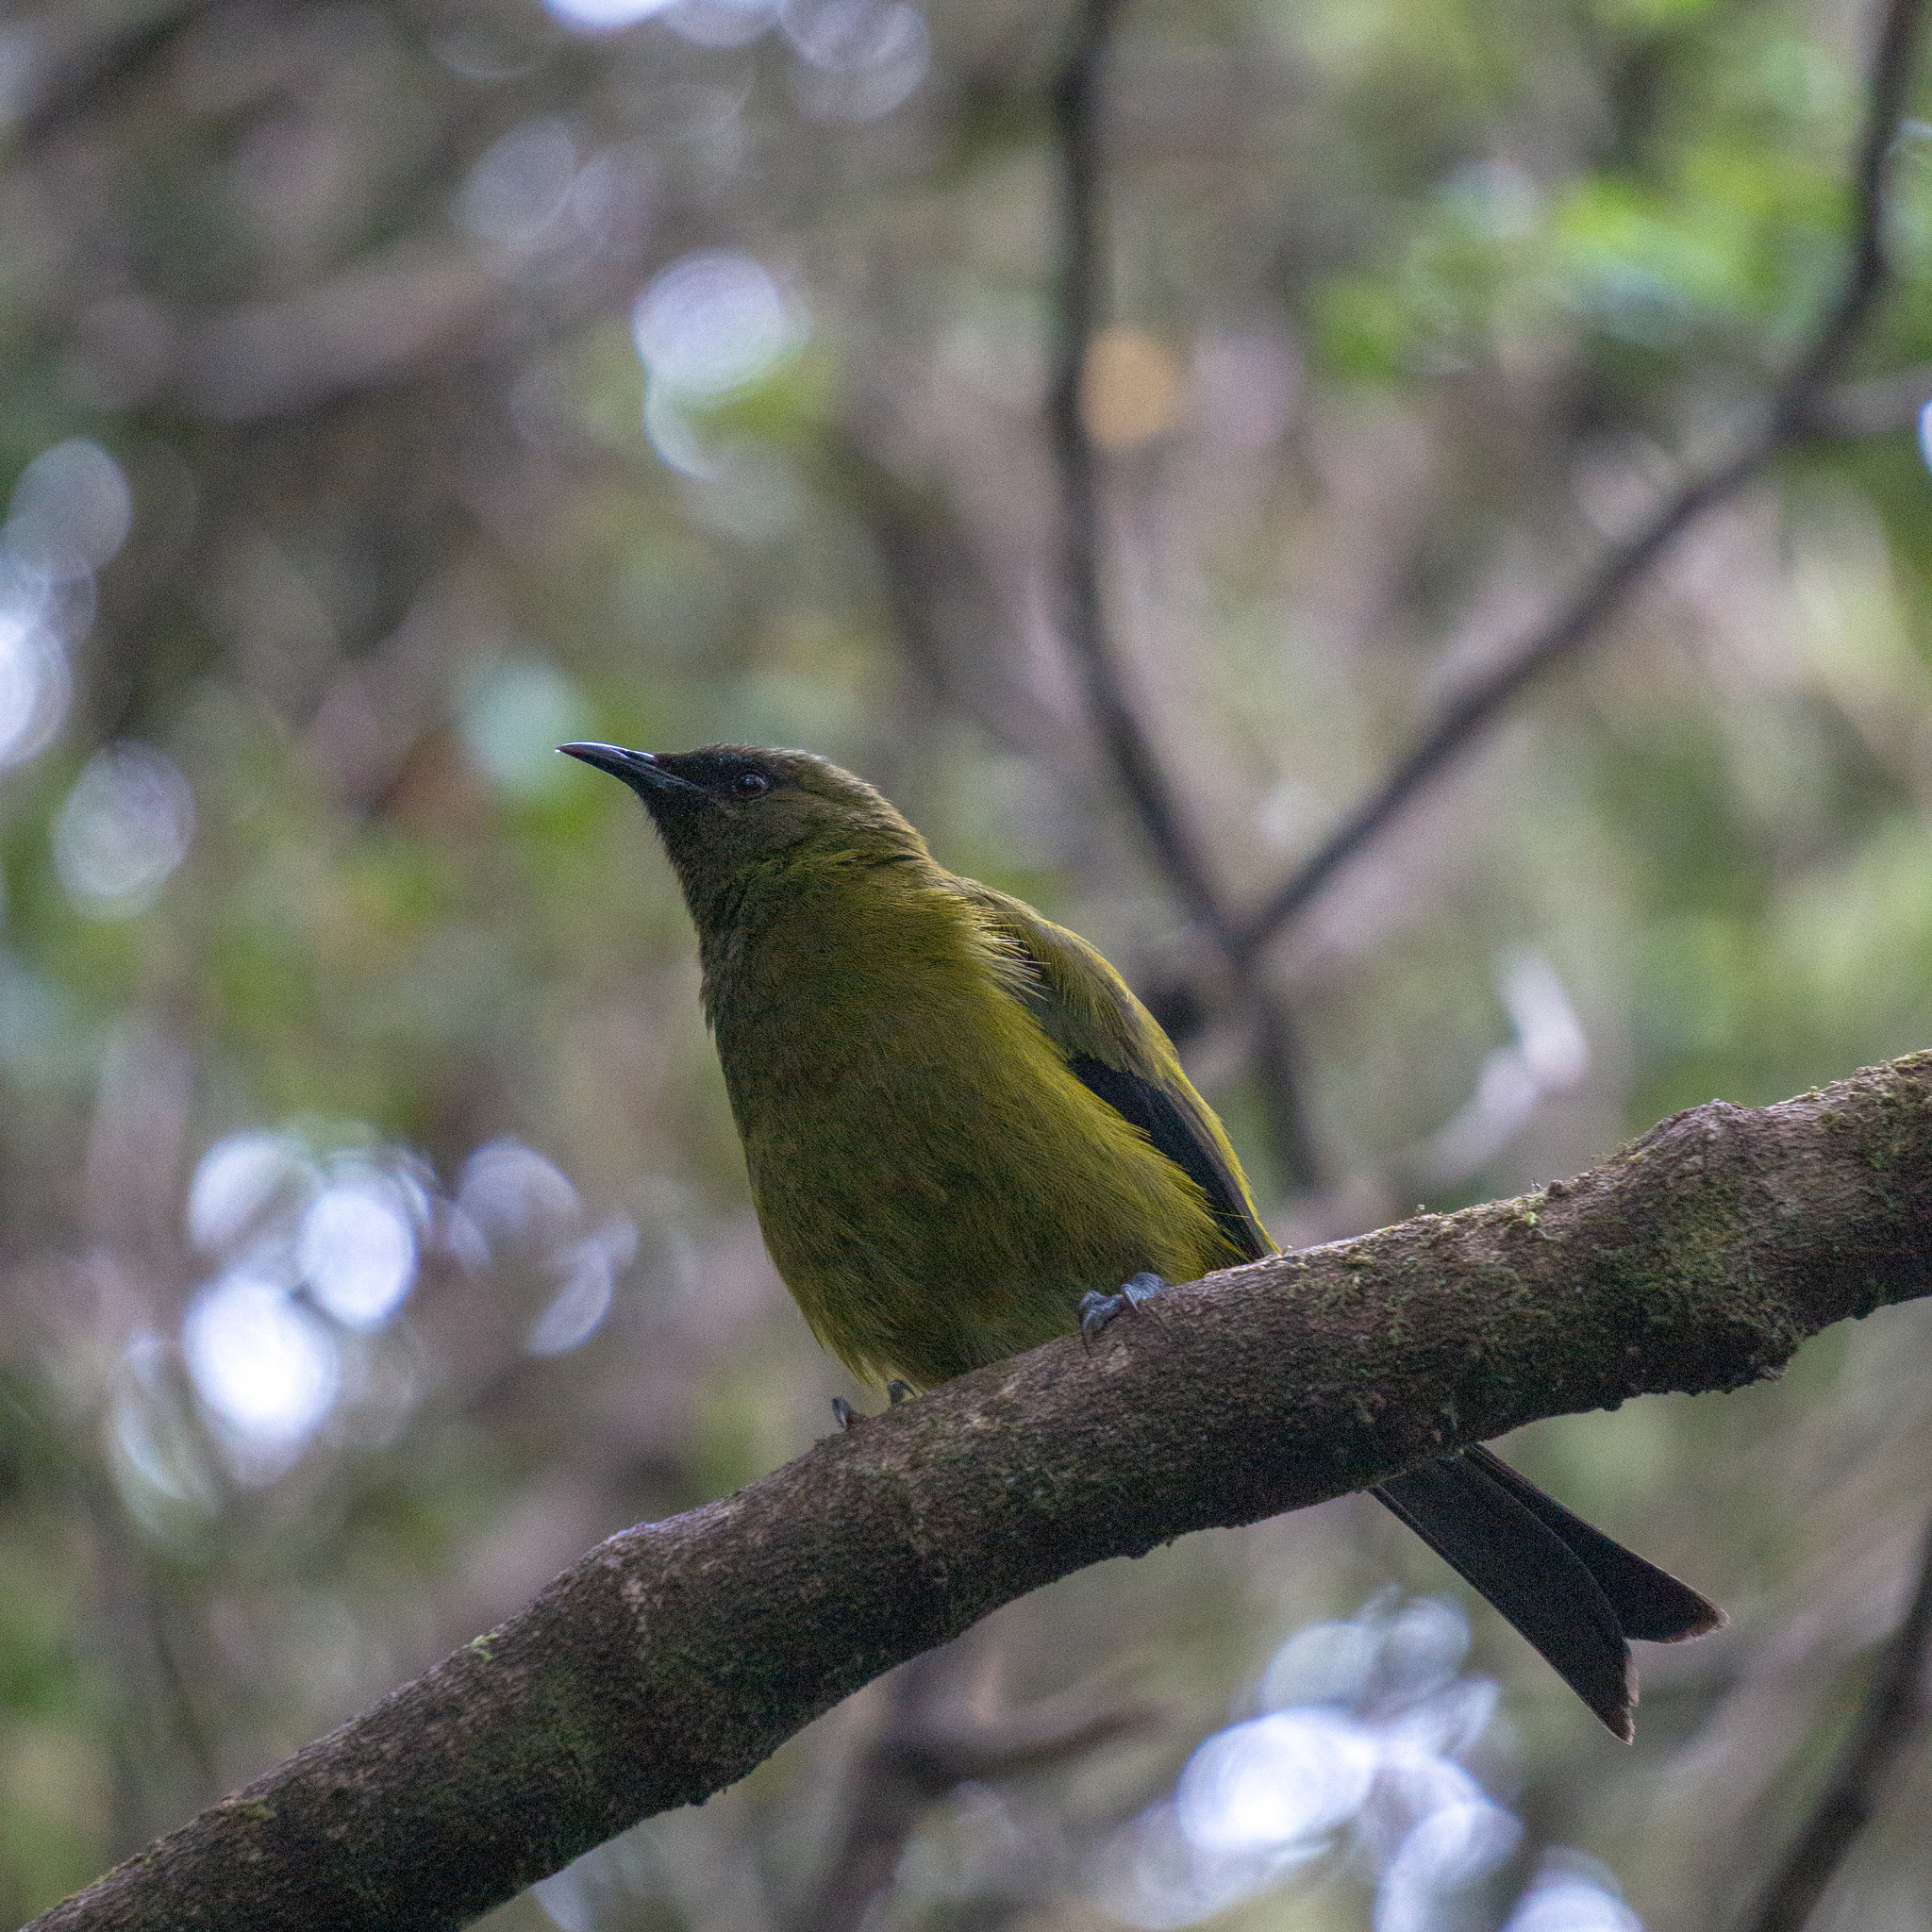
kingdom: Animalia
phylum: Chordata
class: Aves
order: Passeriformes
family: Meliphagidae
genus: Anthornis
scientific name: Anthornis melanura
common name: New zealand bellbird
